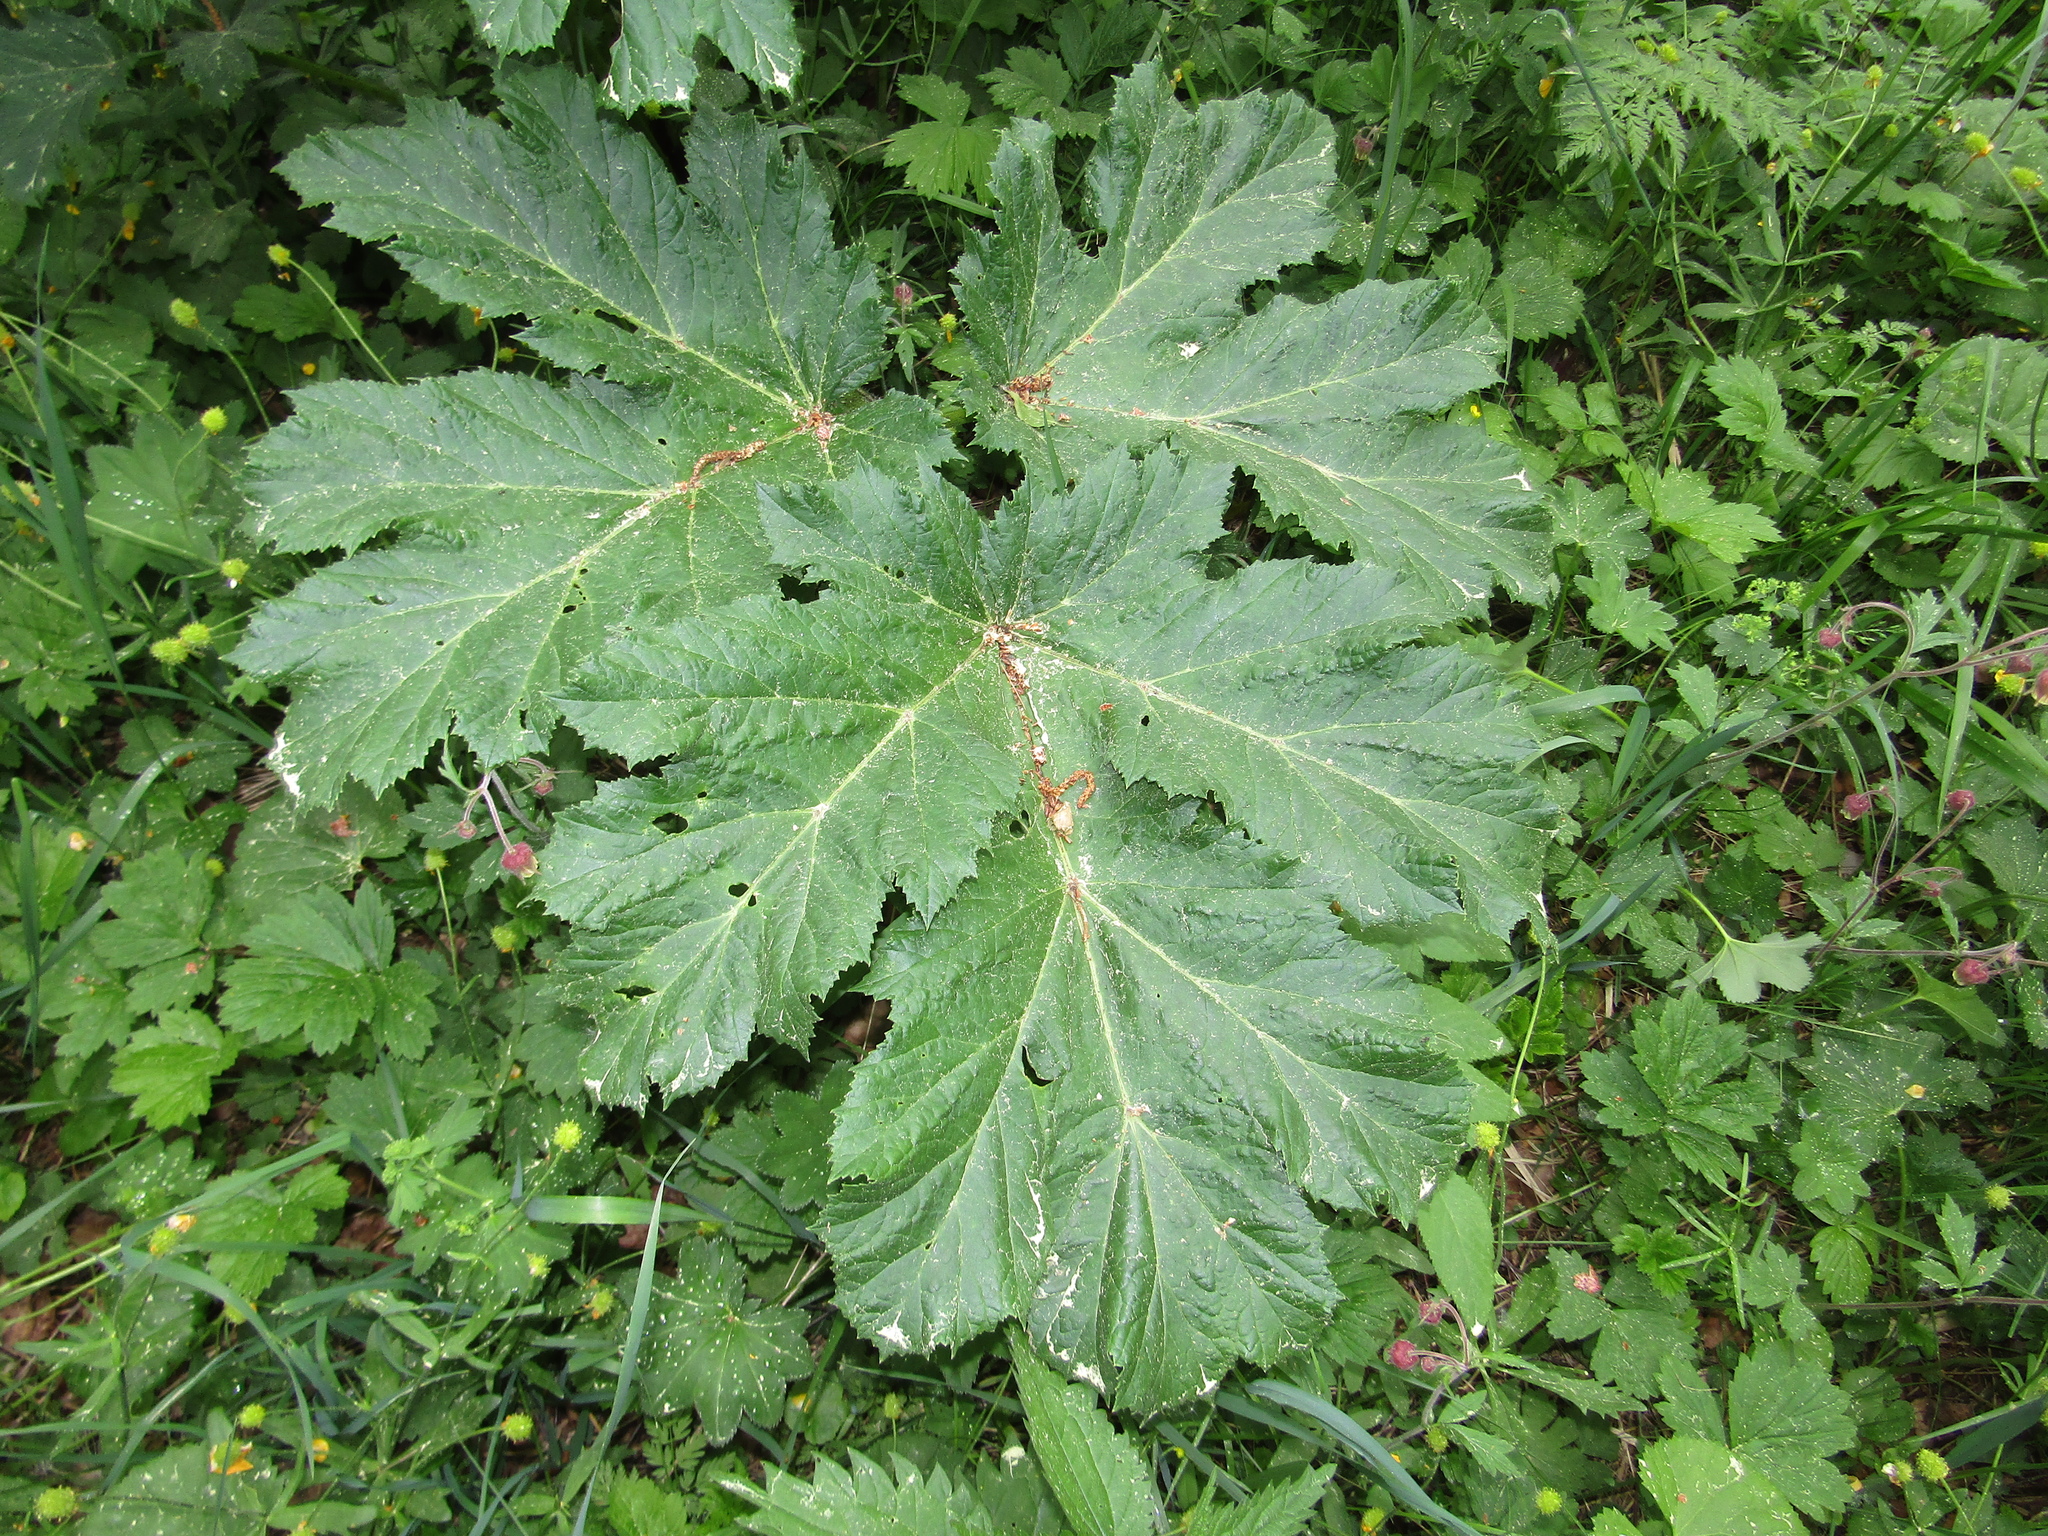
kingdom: Plantae
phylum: Tracheophyta
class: Magnoliopsida
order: Apiales
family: Apiaceae
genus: Heracleum
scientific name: Heracleum sosnowskyi
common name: Sosnowsky's hogweed
